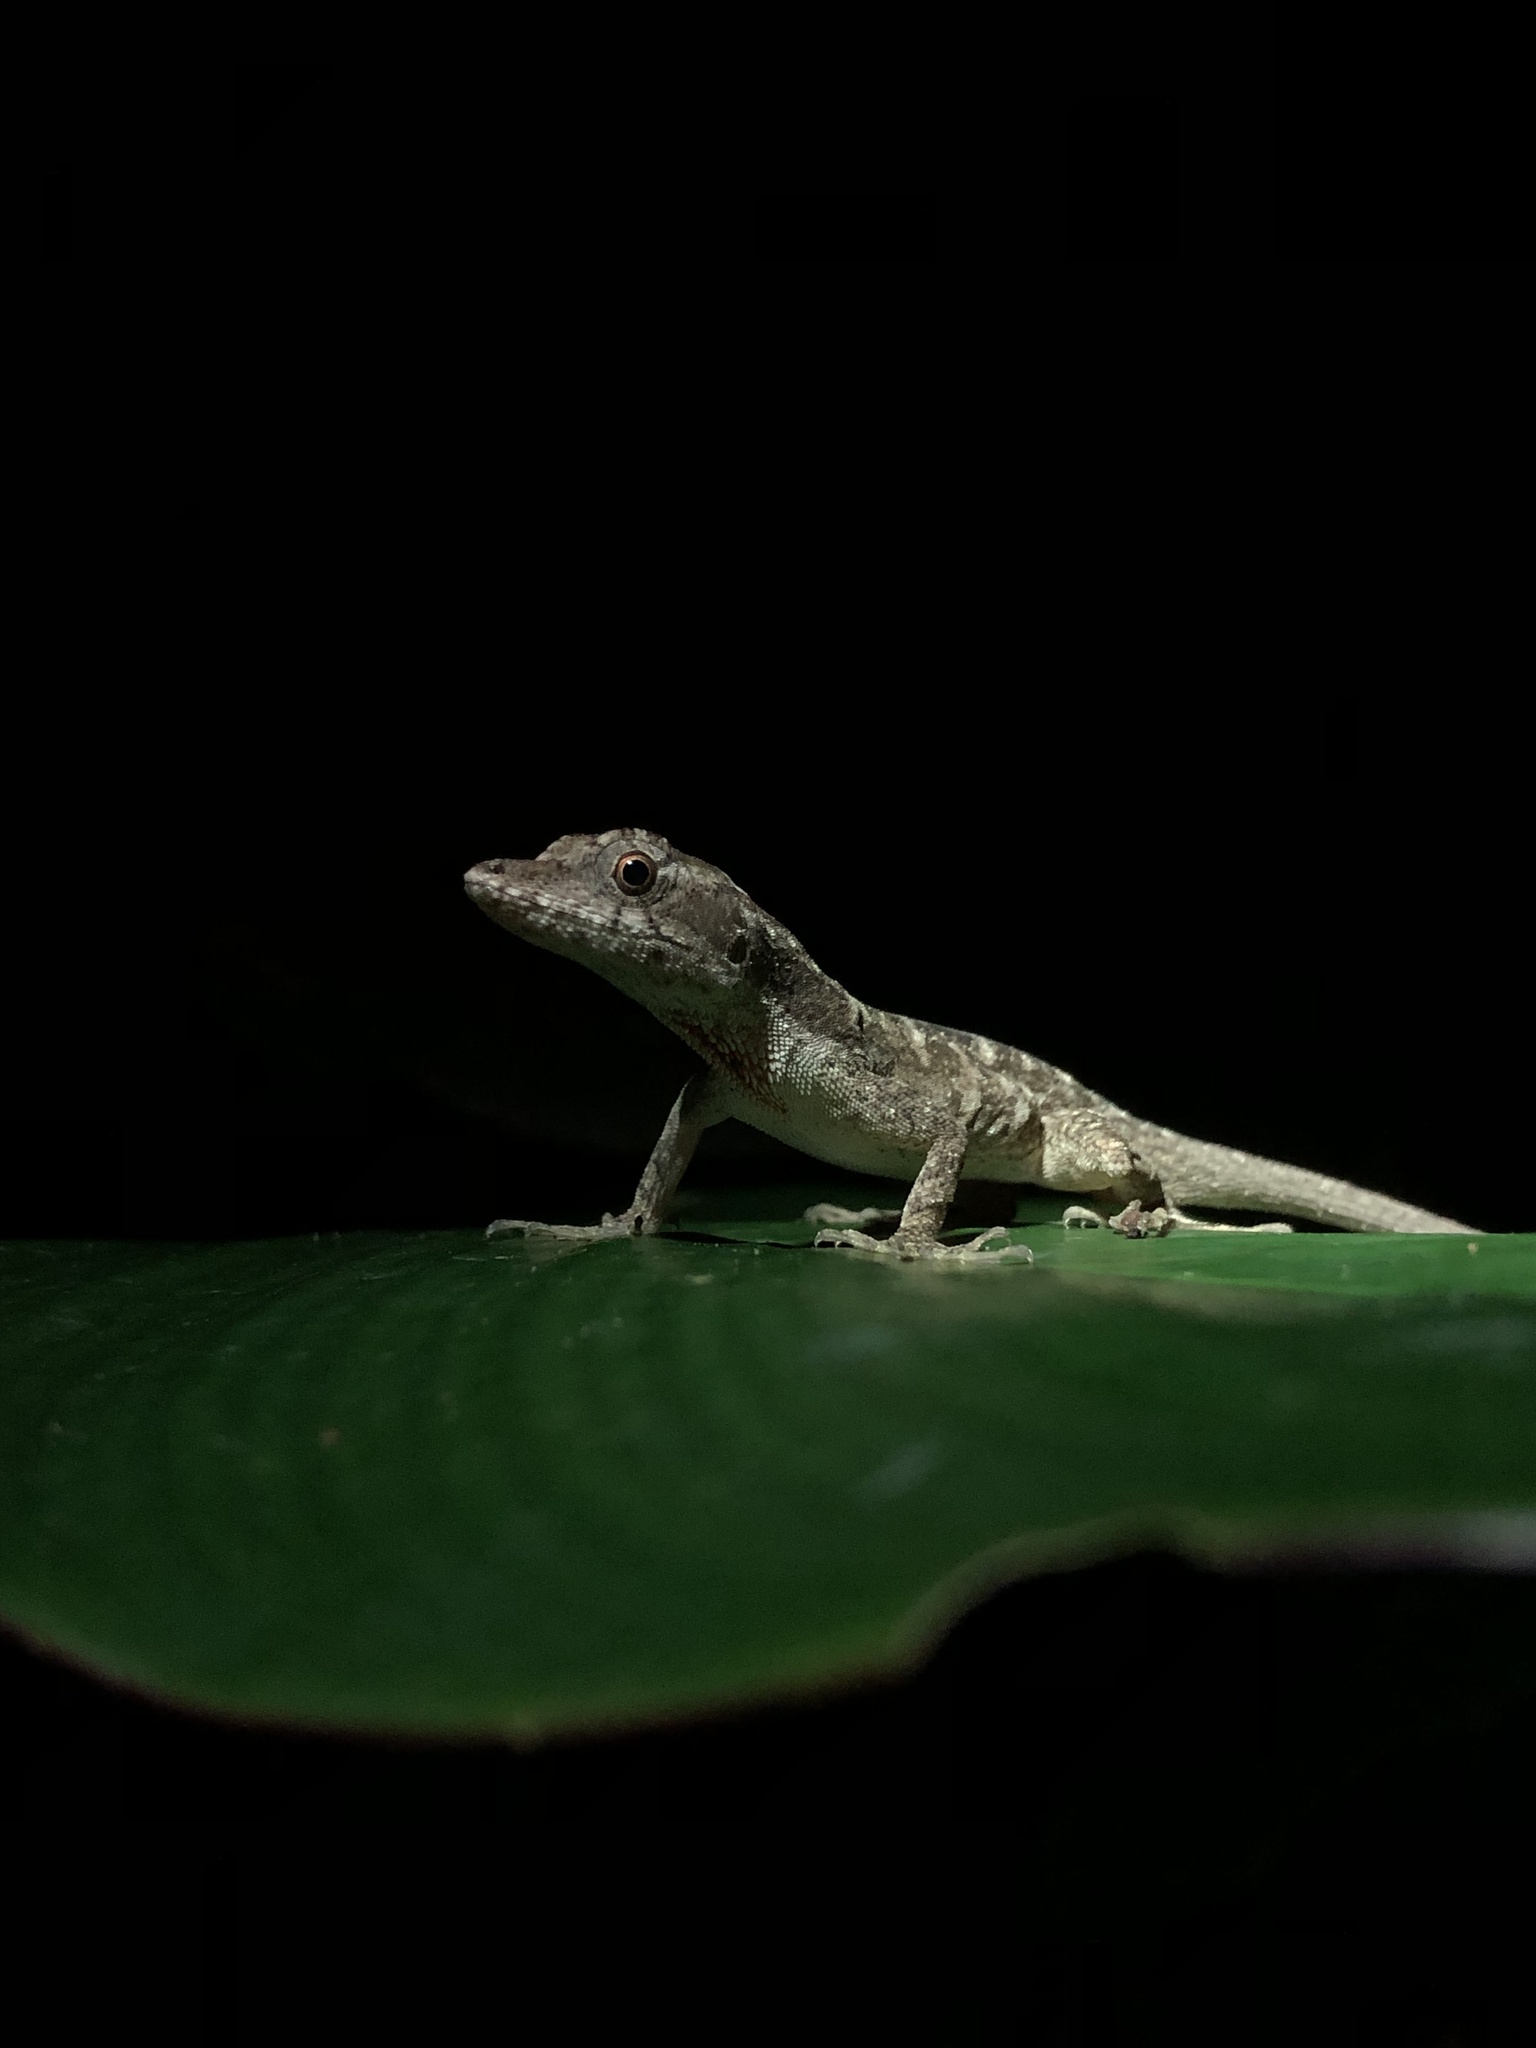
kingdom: Animalia
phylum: Chordata
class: Squamata
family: Dactyloidae
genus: Anolis
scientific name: Anolis lemurinus
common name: Ghost anole
